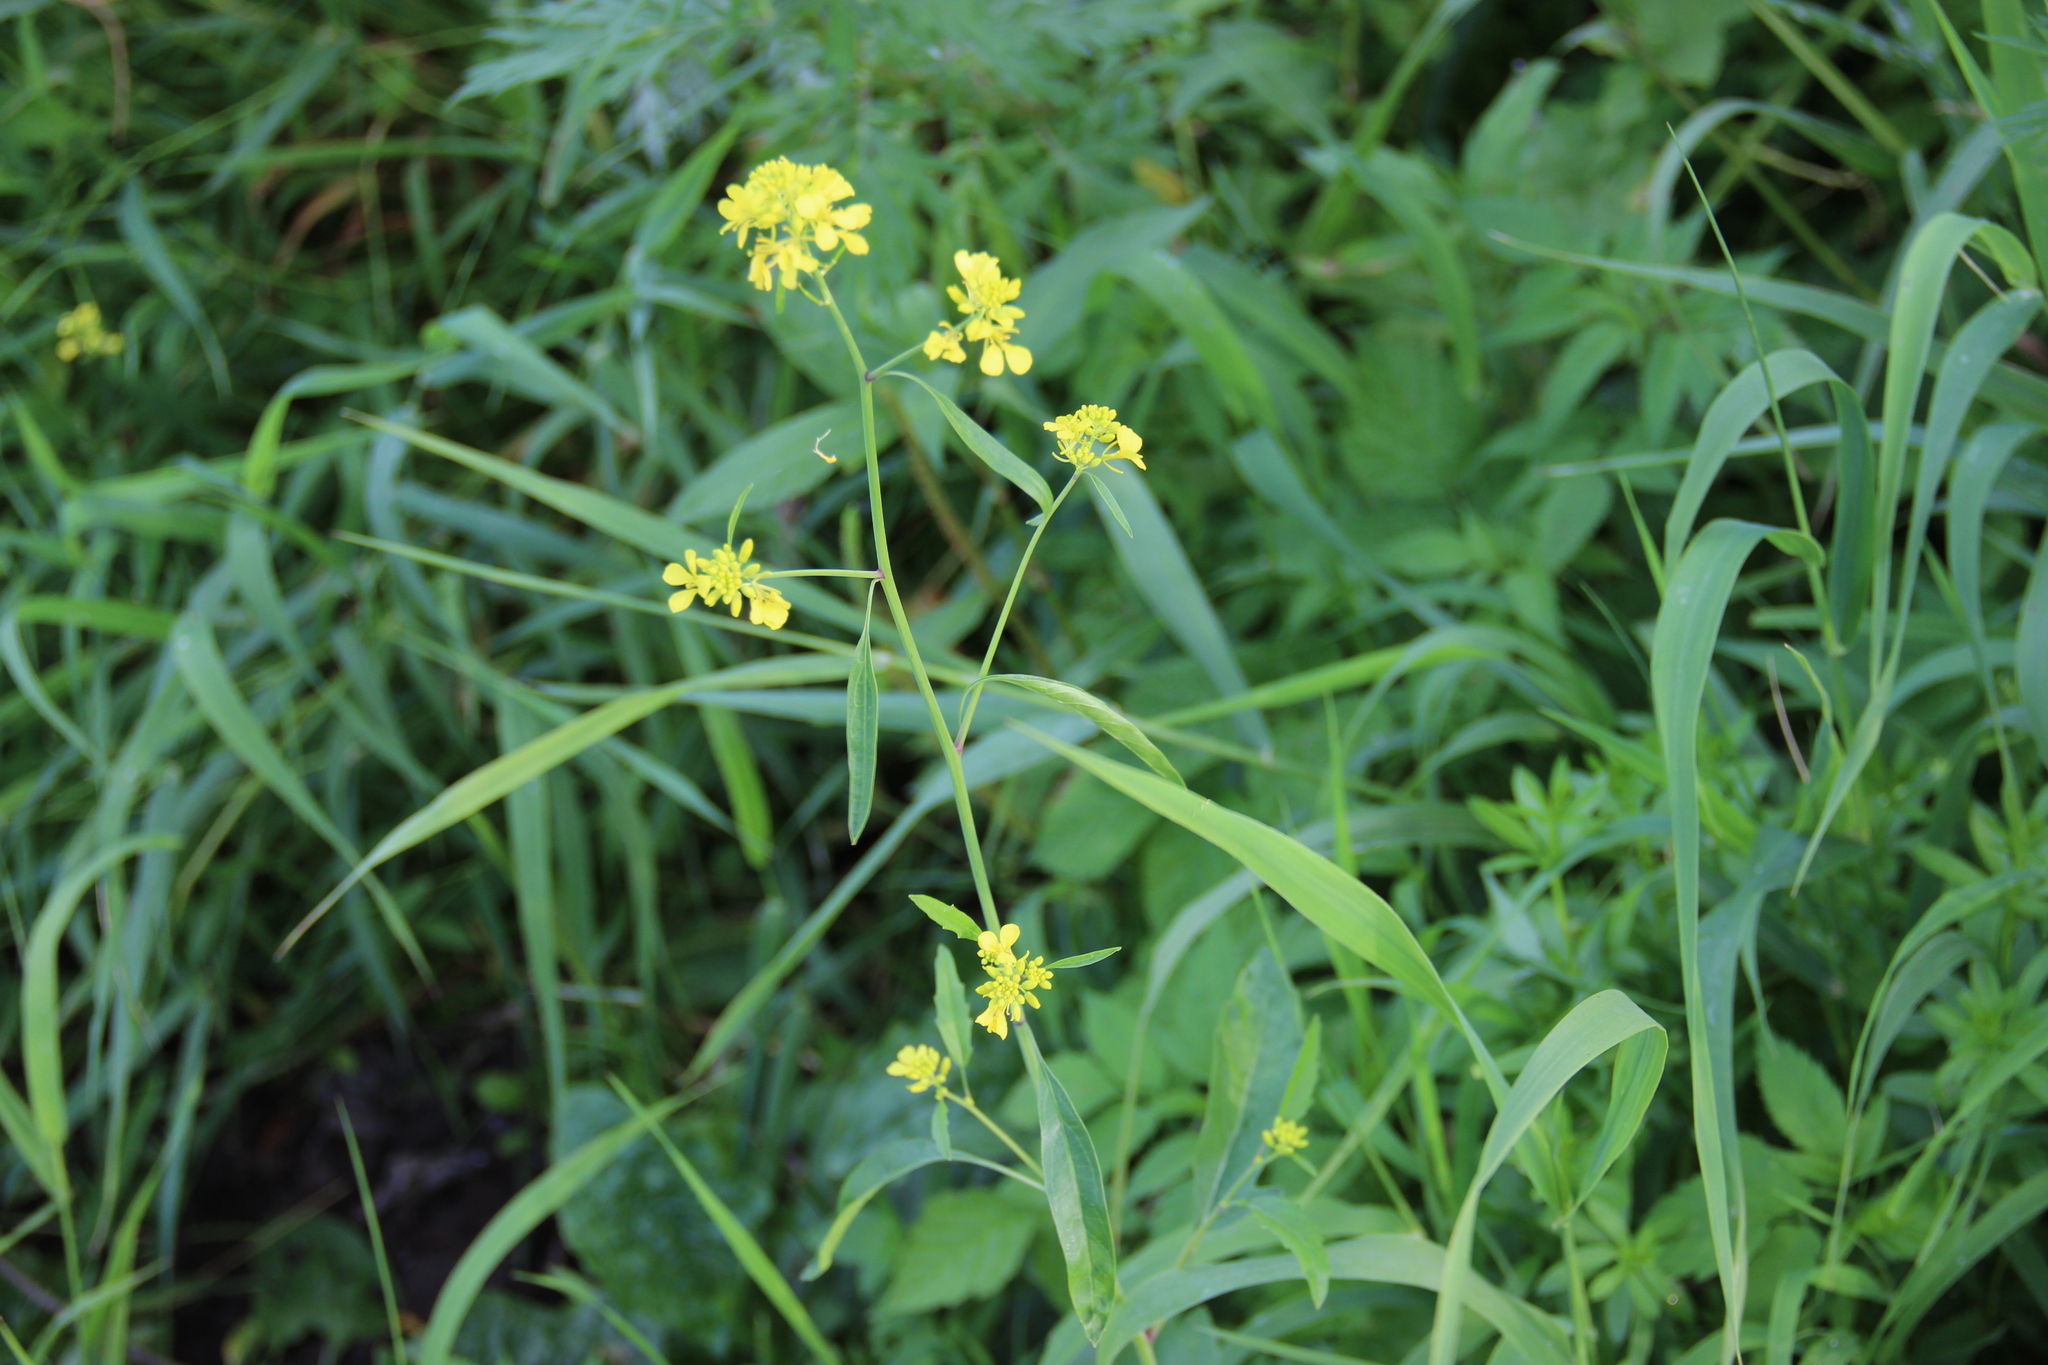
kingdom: Plantae
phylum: Tracheophyta
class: Magnoliopsida
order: Brassicales
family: Brassicaceae
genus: Brassica
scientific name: Brassica juncea
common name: Brown mustard
